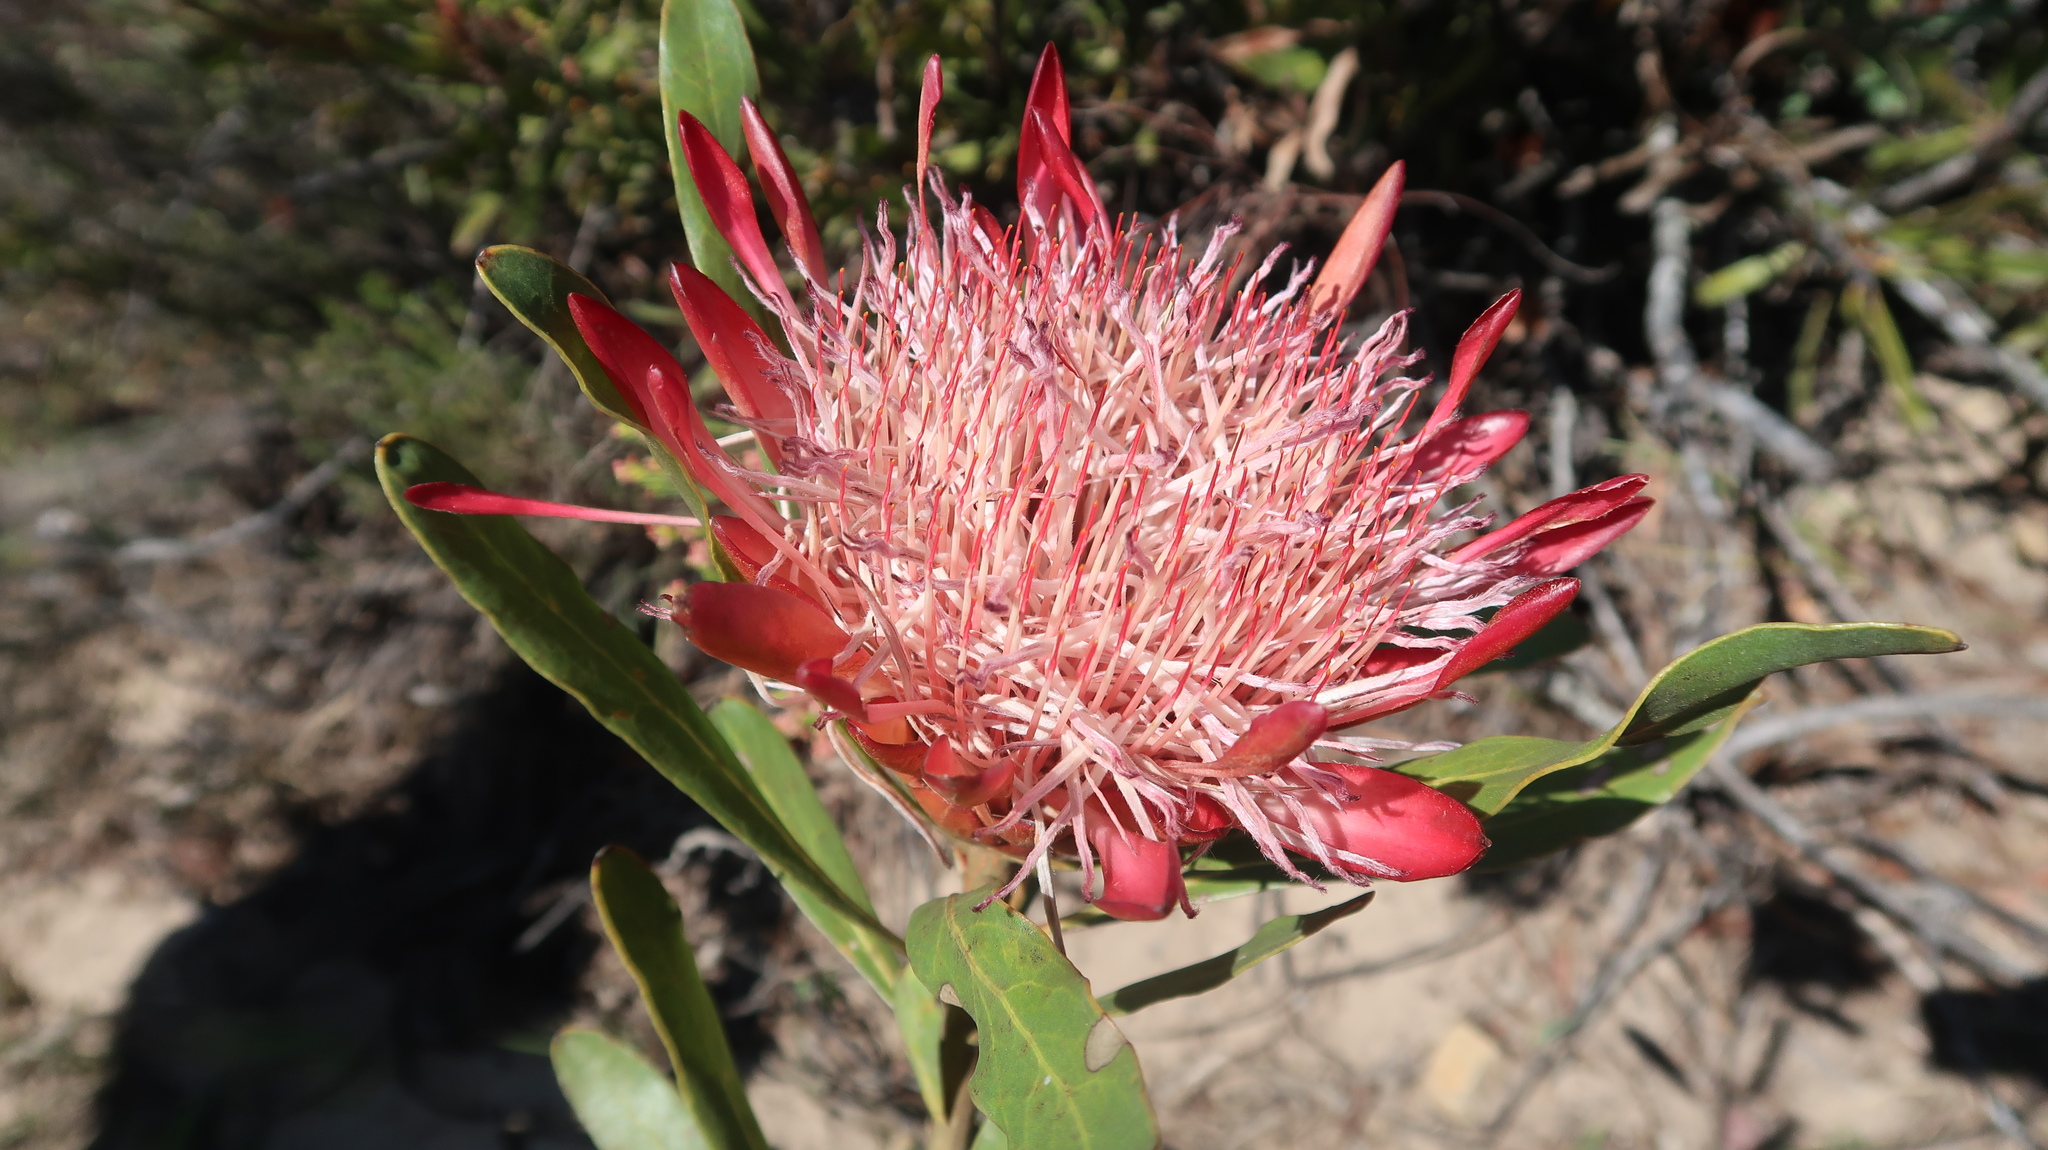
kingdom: Plantae
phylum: Tracheophyta
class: Magnoliopsida
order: Proteales
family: Proteaceae
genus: Protea
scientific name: Protea susannae
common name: Foetid-leaf sugarbush
